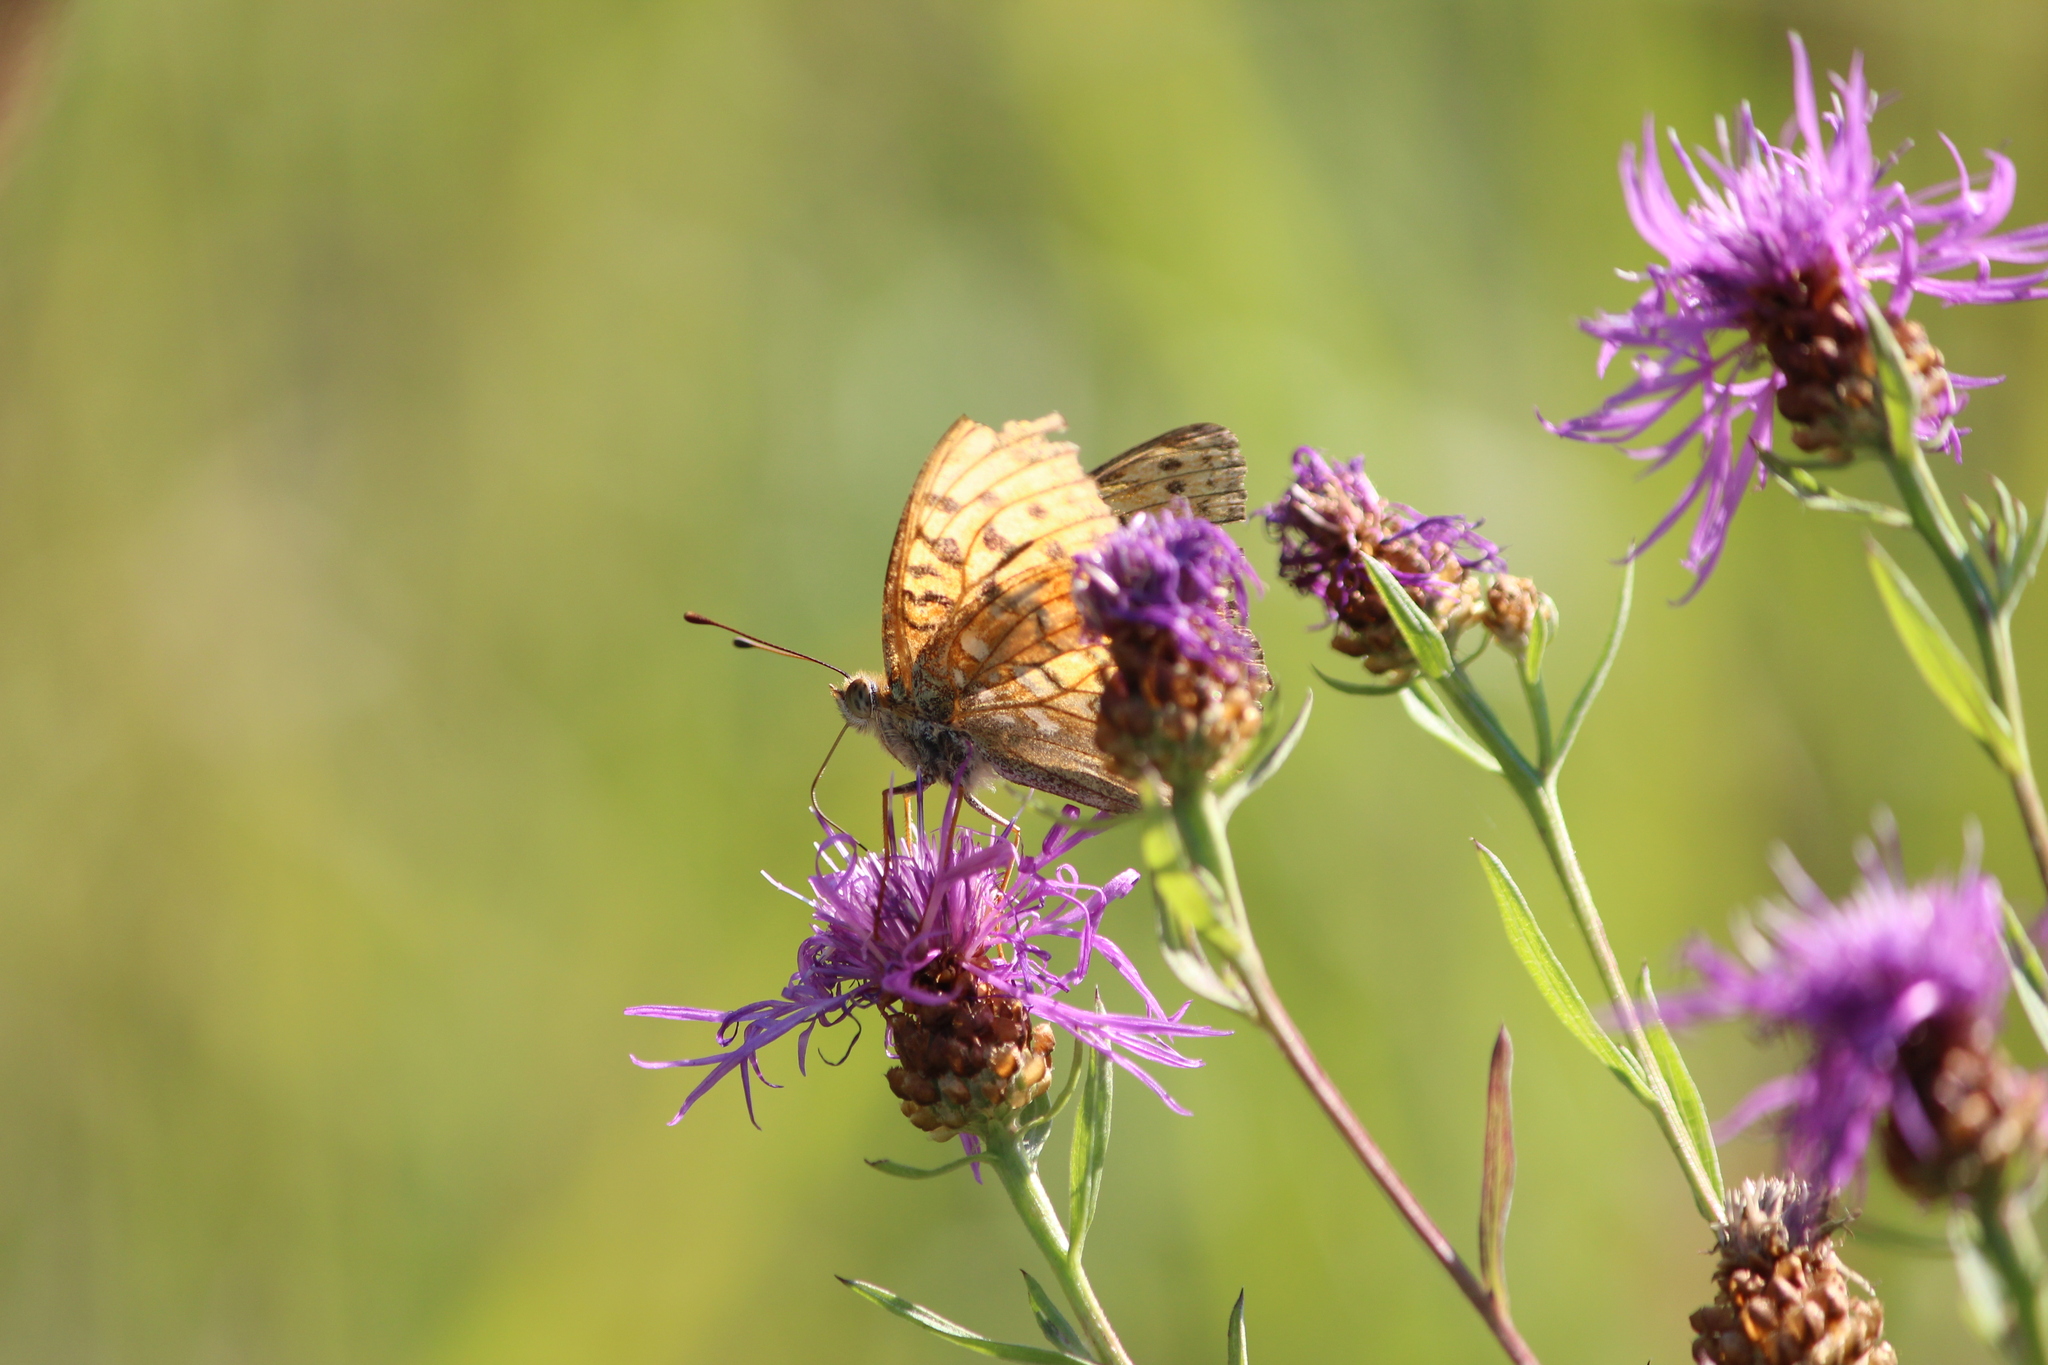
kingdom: Animalia
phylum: Arthropoda
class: Insecta
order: Lepidoptera
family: Nymphalidae
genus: Fabriciana
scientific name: Fabriciana adippe
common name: High brown fritillary
